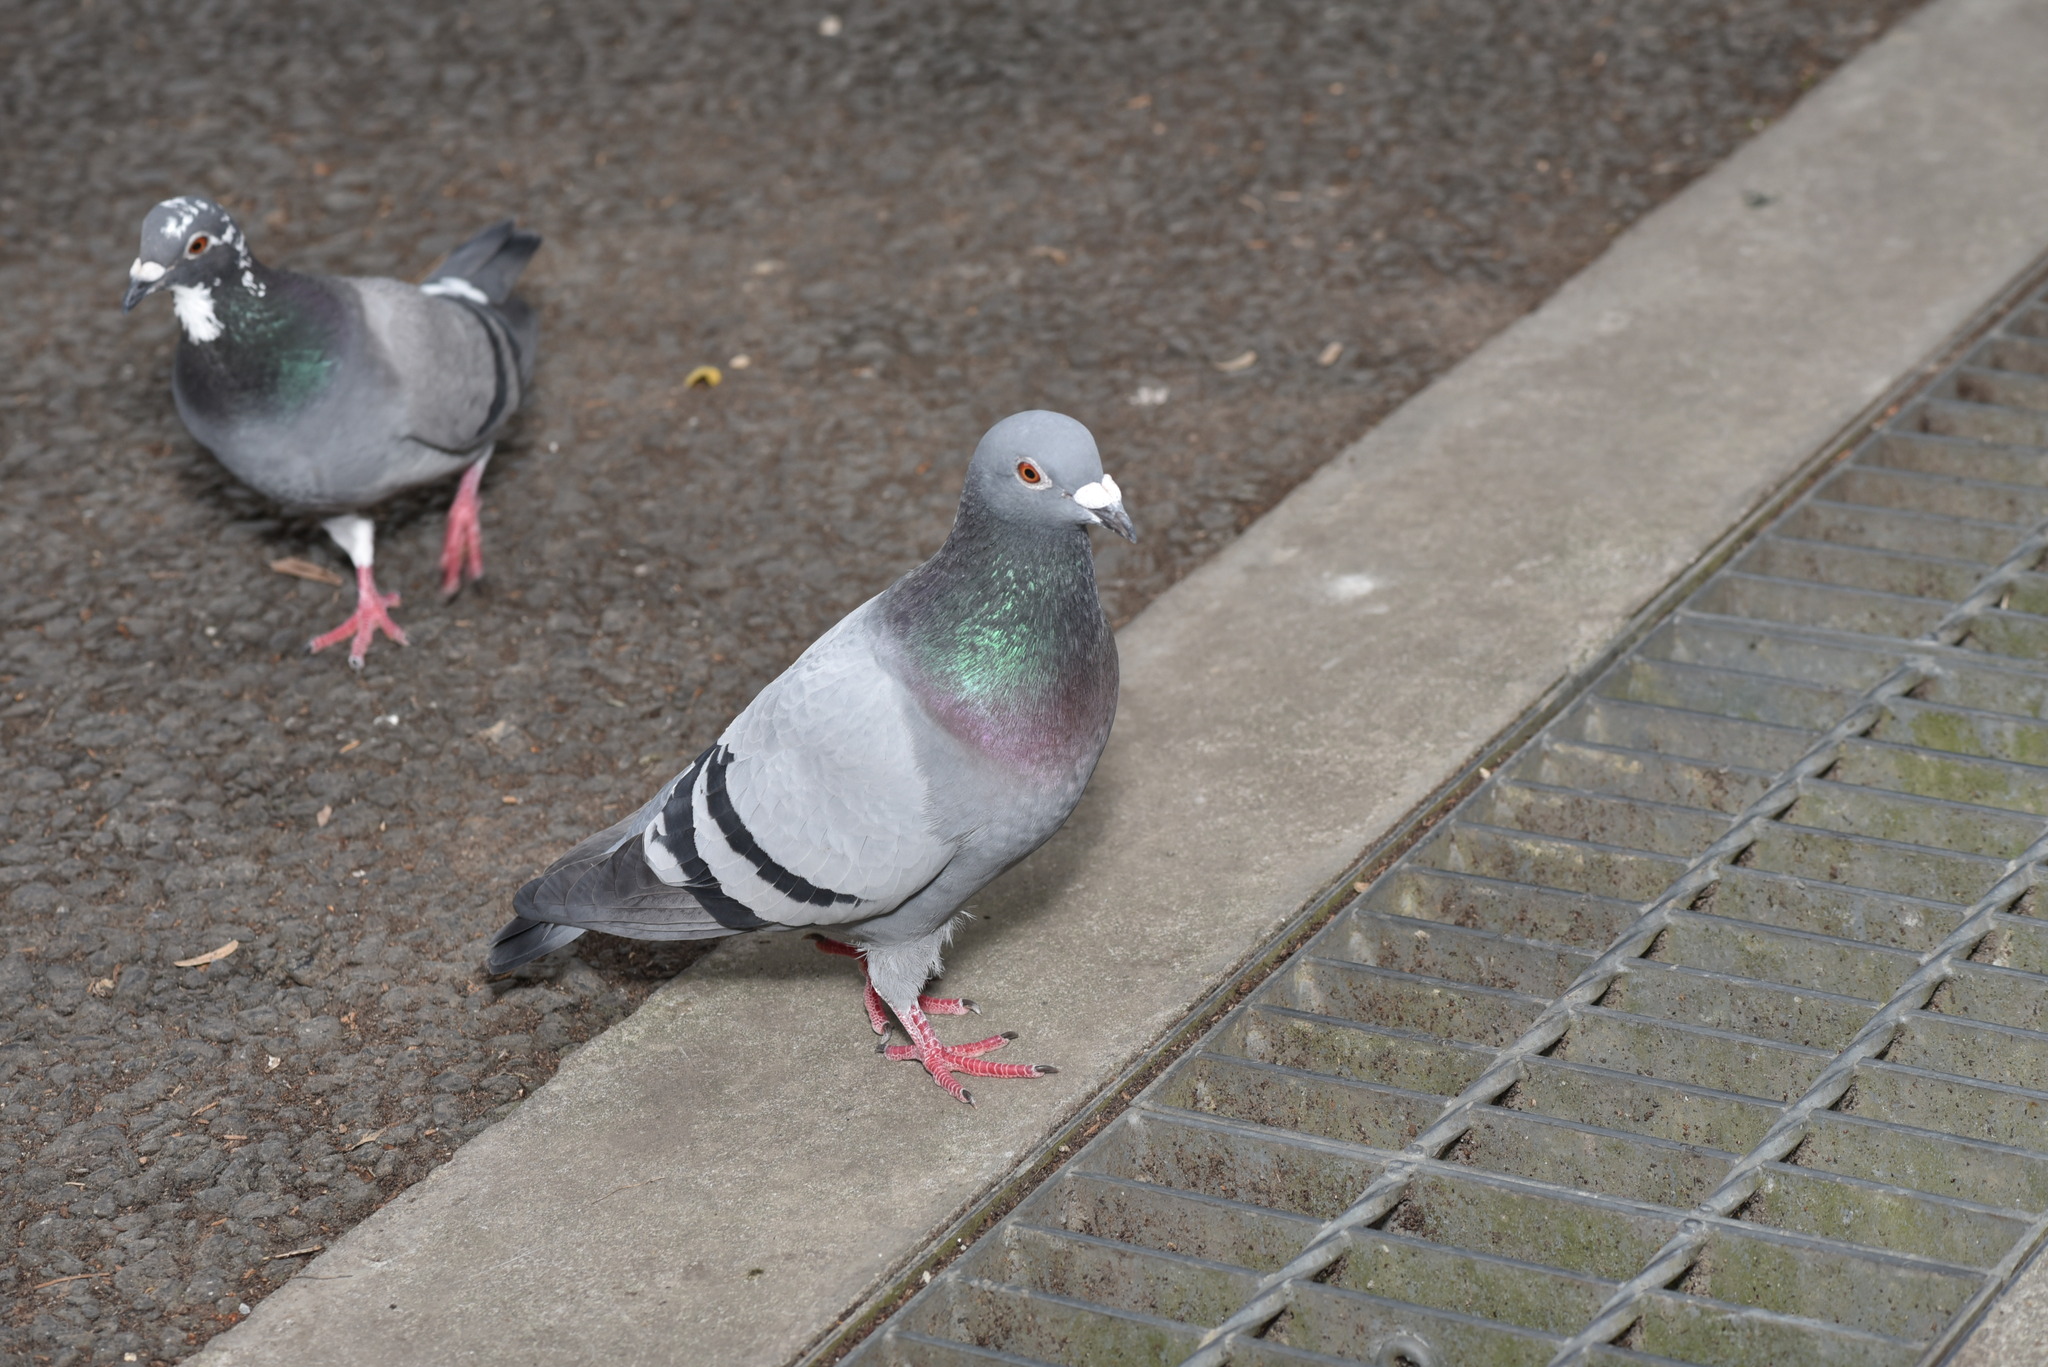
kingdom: Animalia
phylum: Chordata
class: Aves
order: Columbiformes
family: Columbidae
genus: Columba
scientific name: Columba livia
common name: Rock pigeon
